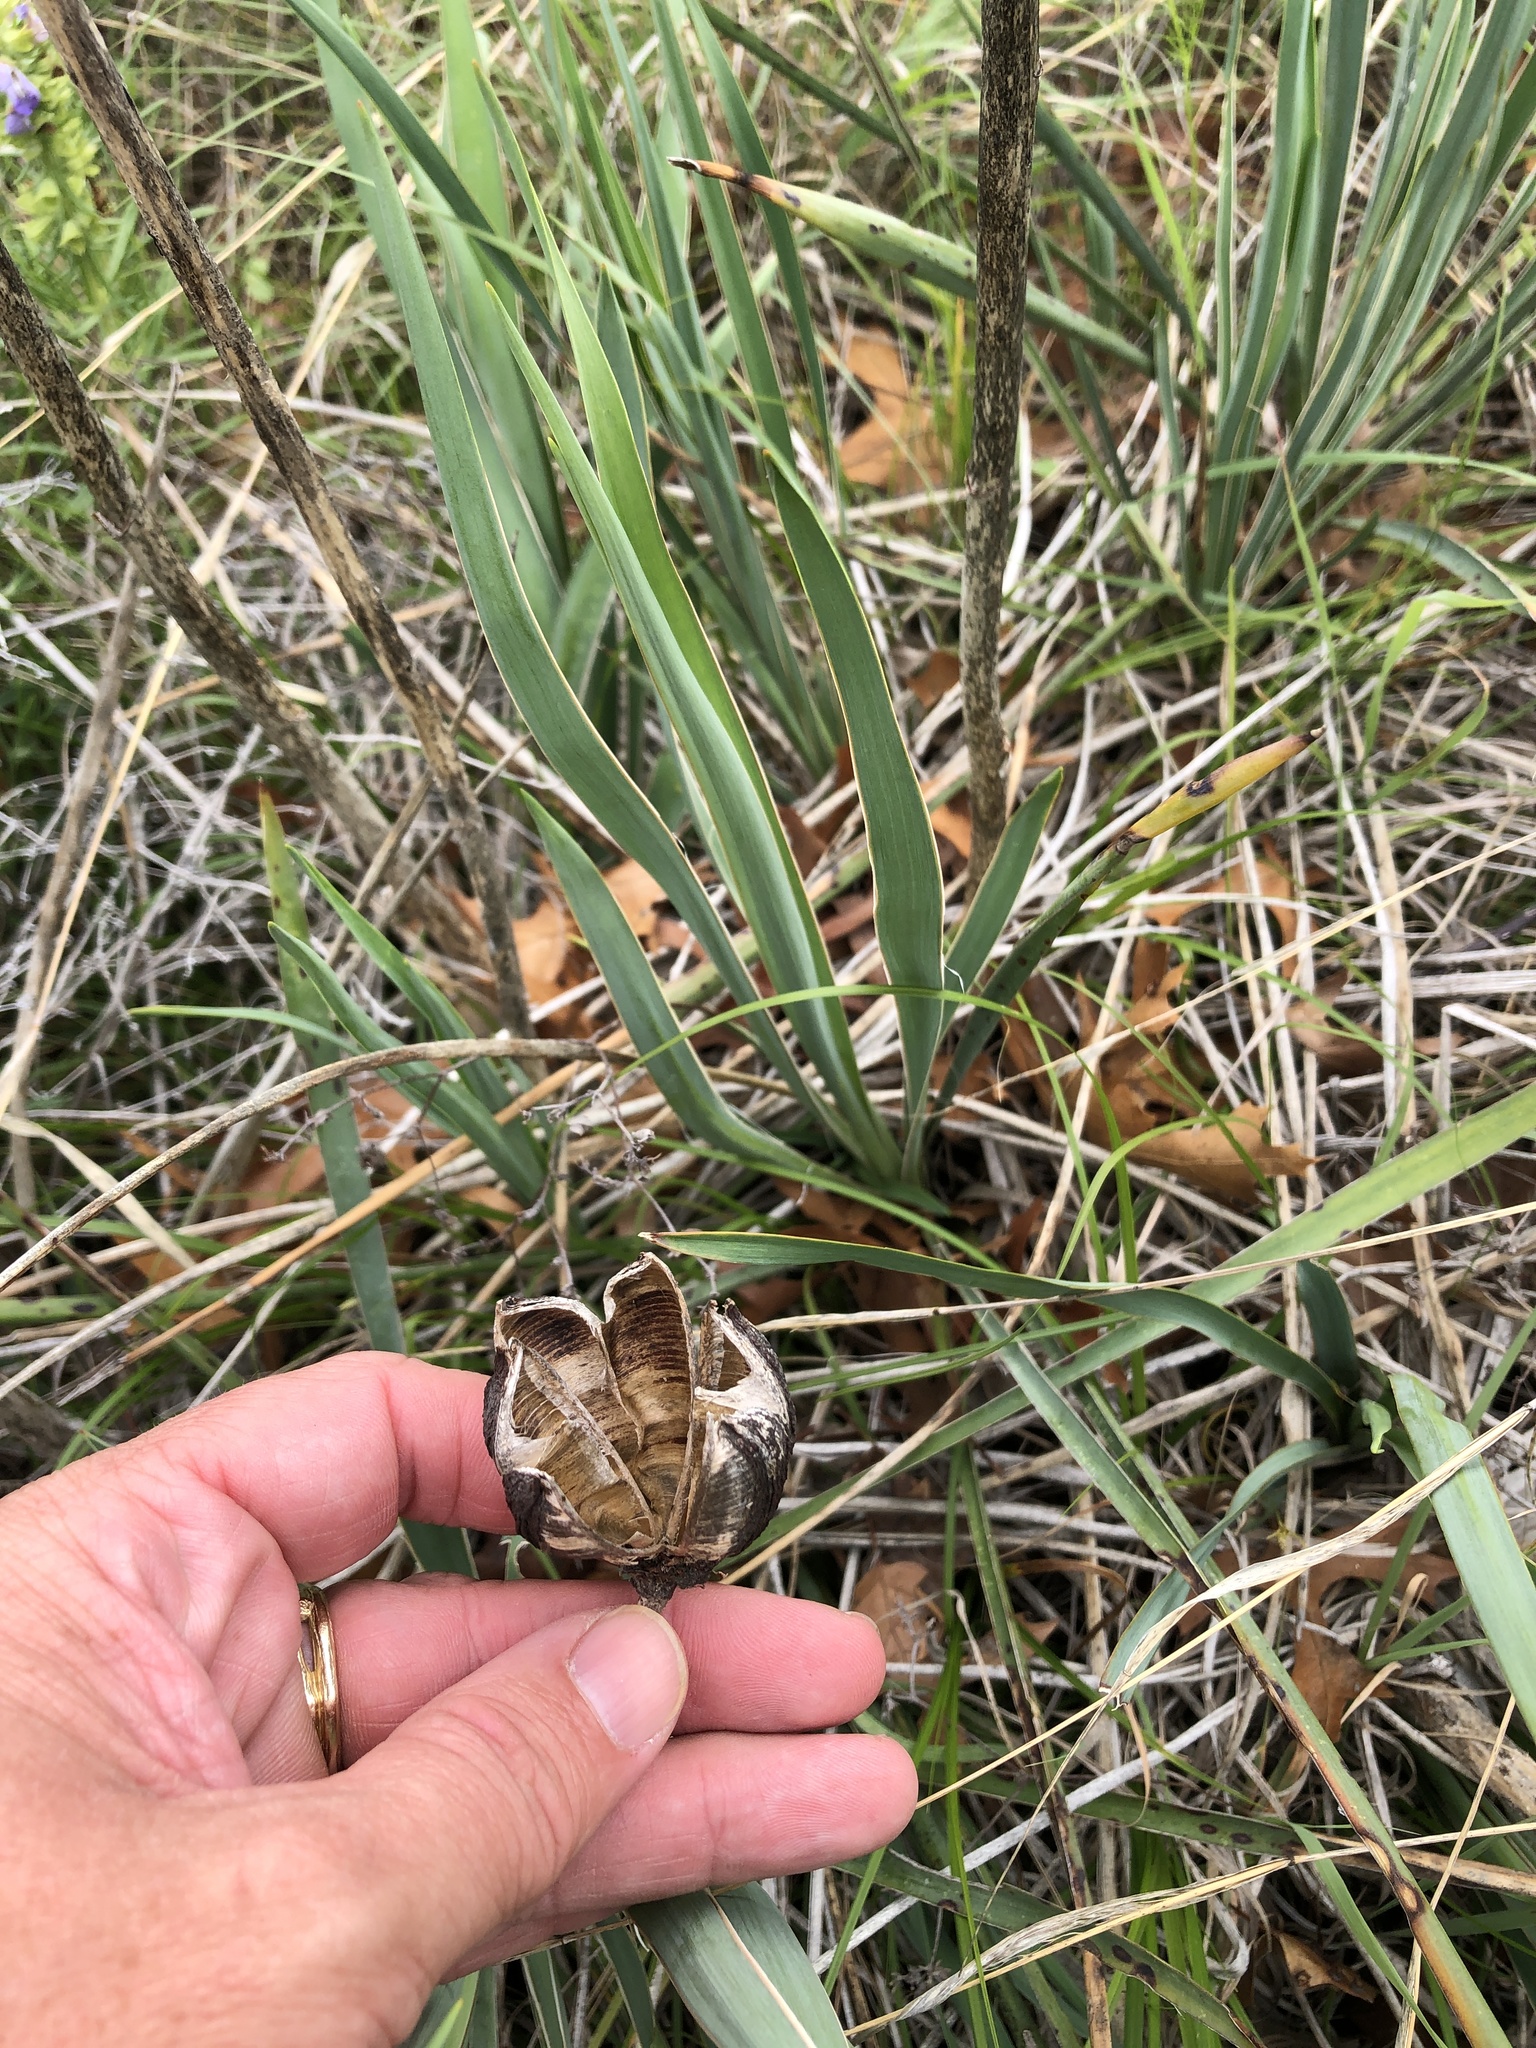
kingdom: Plantae
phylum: Tracheophyta
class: Liliopsida
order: Asparagales
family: Asparagaceae
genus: Yucca
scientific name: Yucca arkansana
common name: Arkansas yucca
